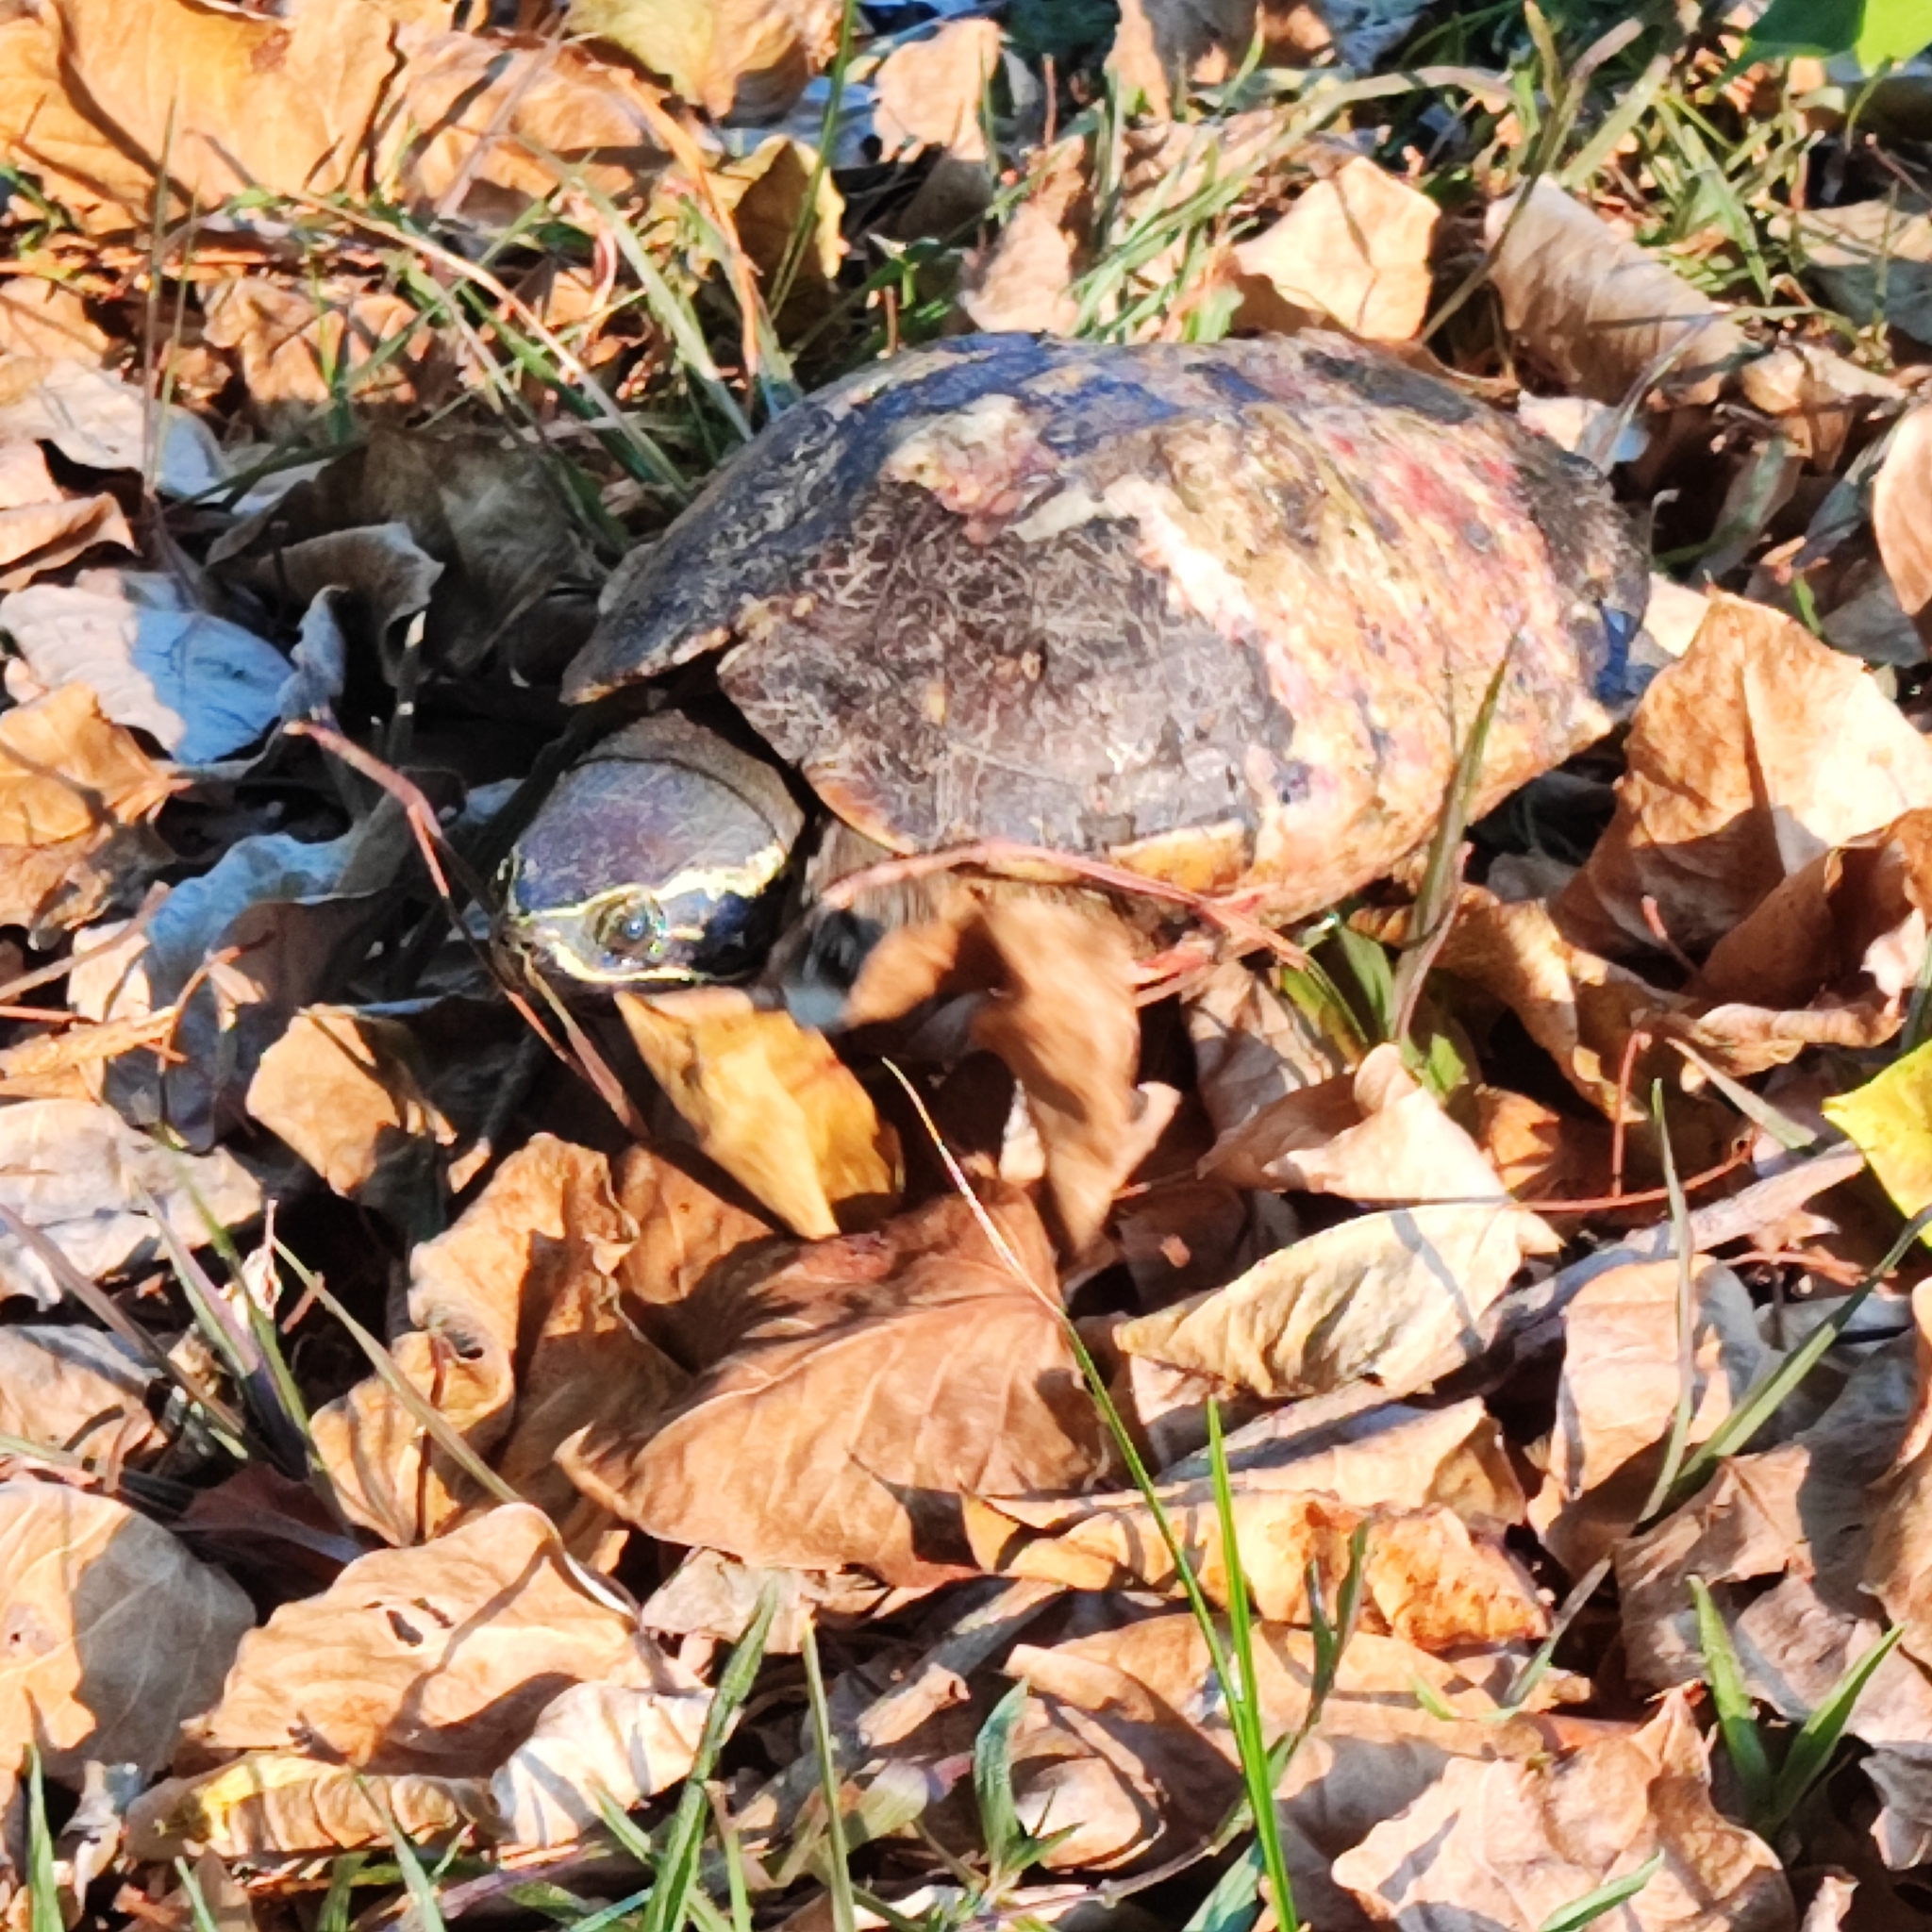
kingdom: Animalia
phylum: Chordata
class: Testudines
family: Geoemydidae
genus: Malayemys
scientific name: Malayemys macrocephala
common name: Malayan snail-eating turtle
